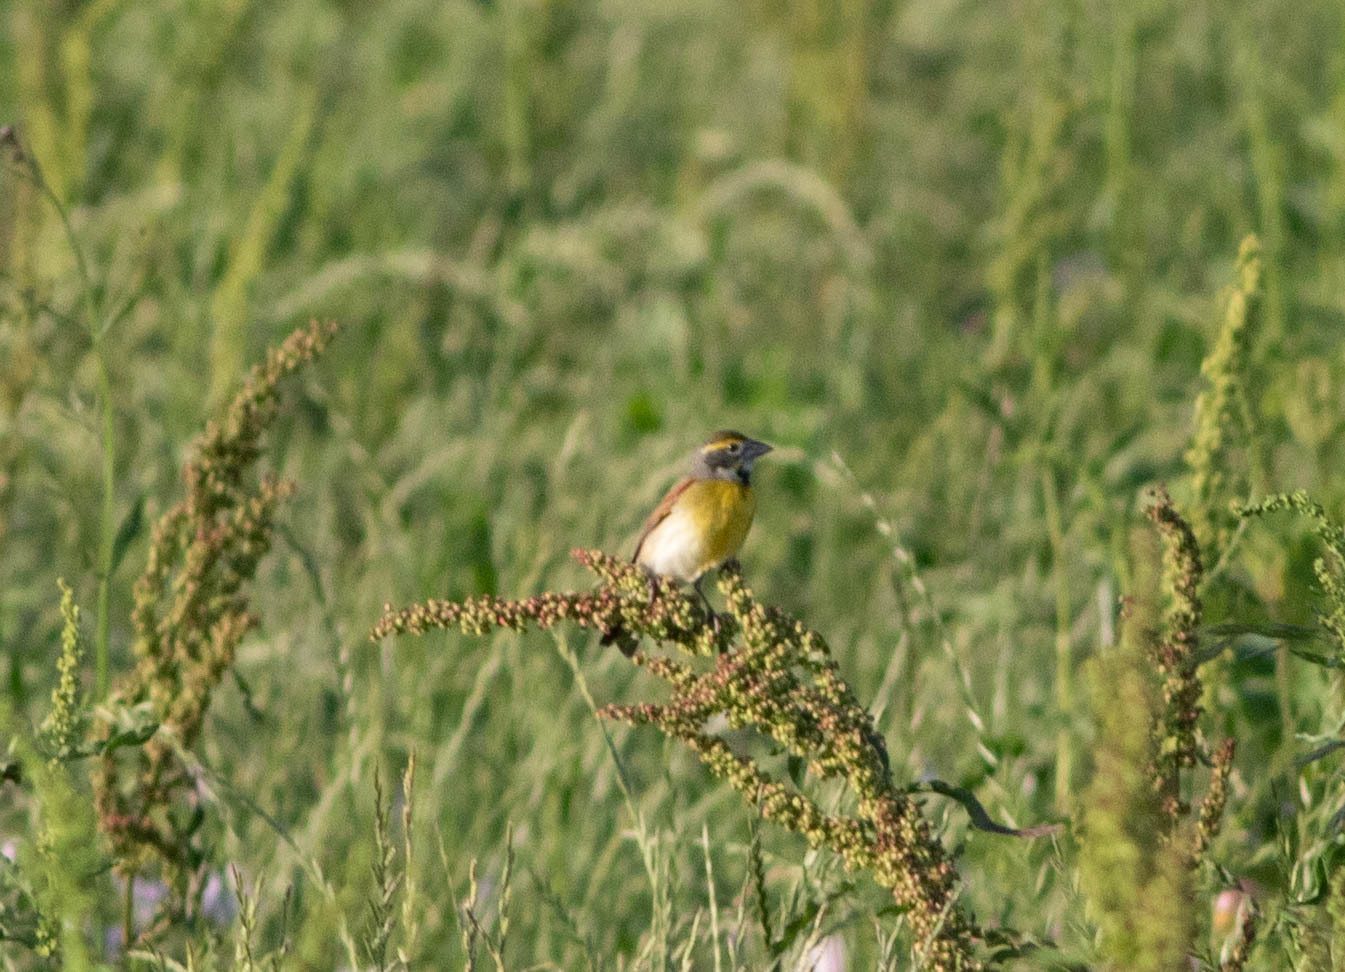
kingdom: Animalia
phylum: Chordata
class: Aves
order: Passeriformes
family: Cardinalidae
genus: Spiza
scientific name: Spiza americana
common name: Dickcissel
